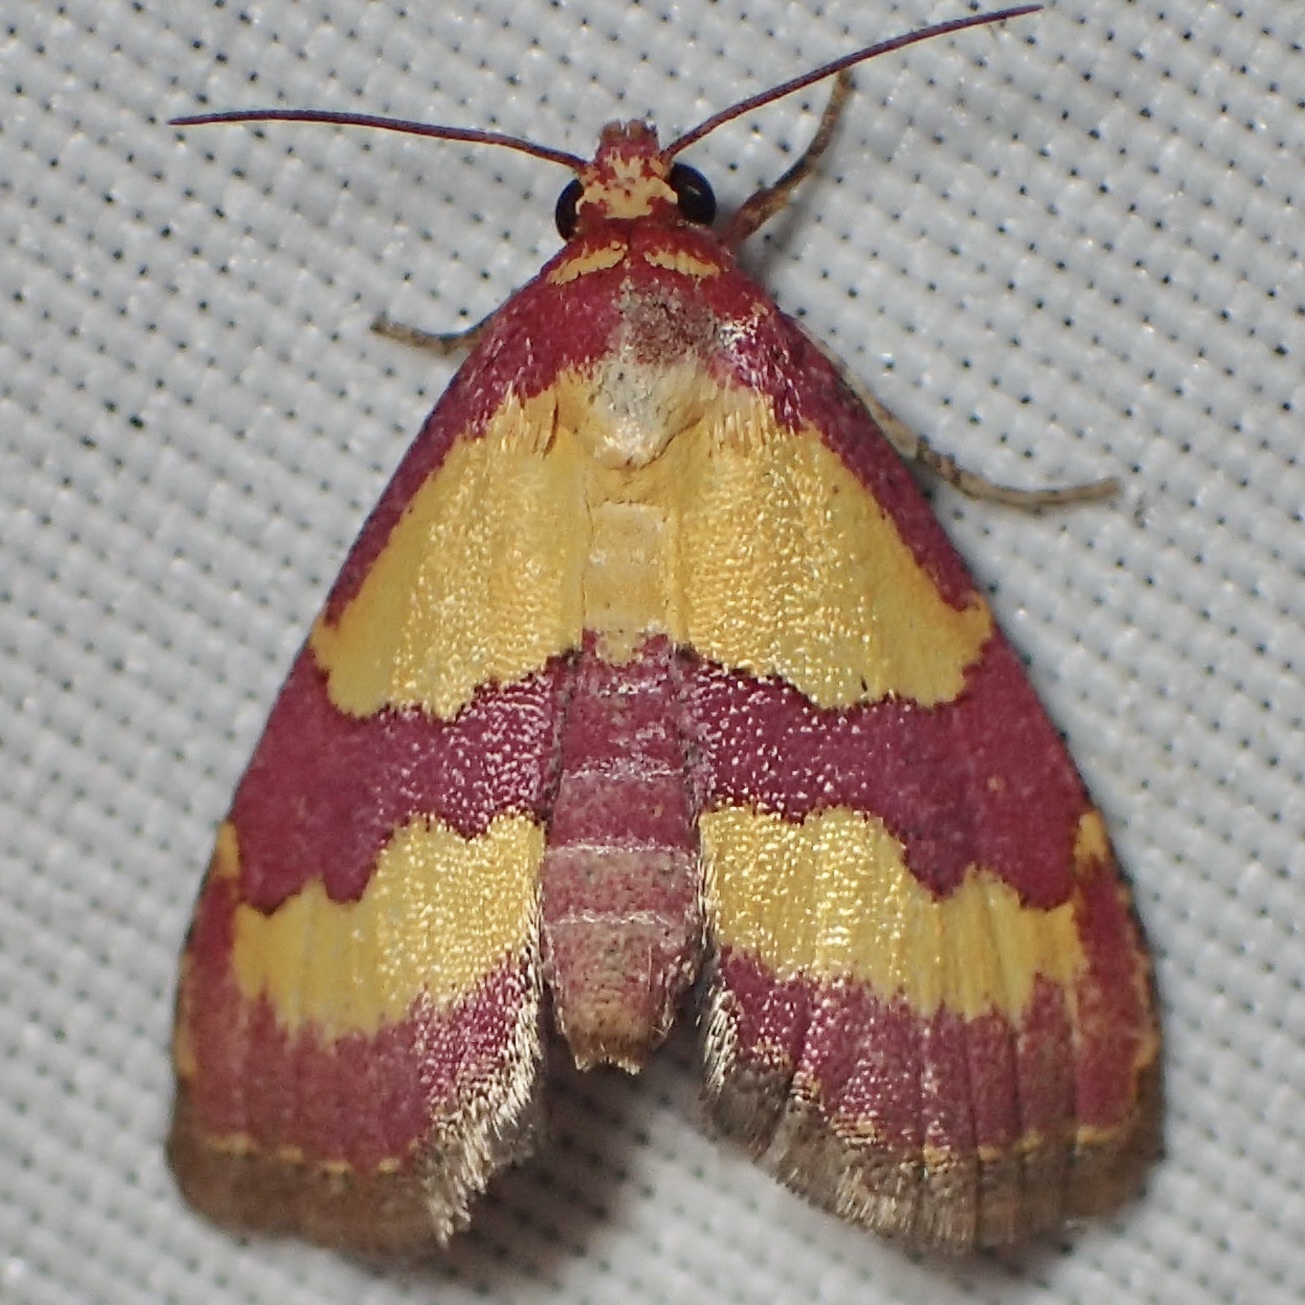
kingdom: Animalia
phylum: Arthropoda
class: Insecta
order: Lepidoptera
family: Noctuidae
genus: Phoenicophanta
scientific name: Phoenicophanta bicolor
